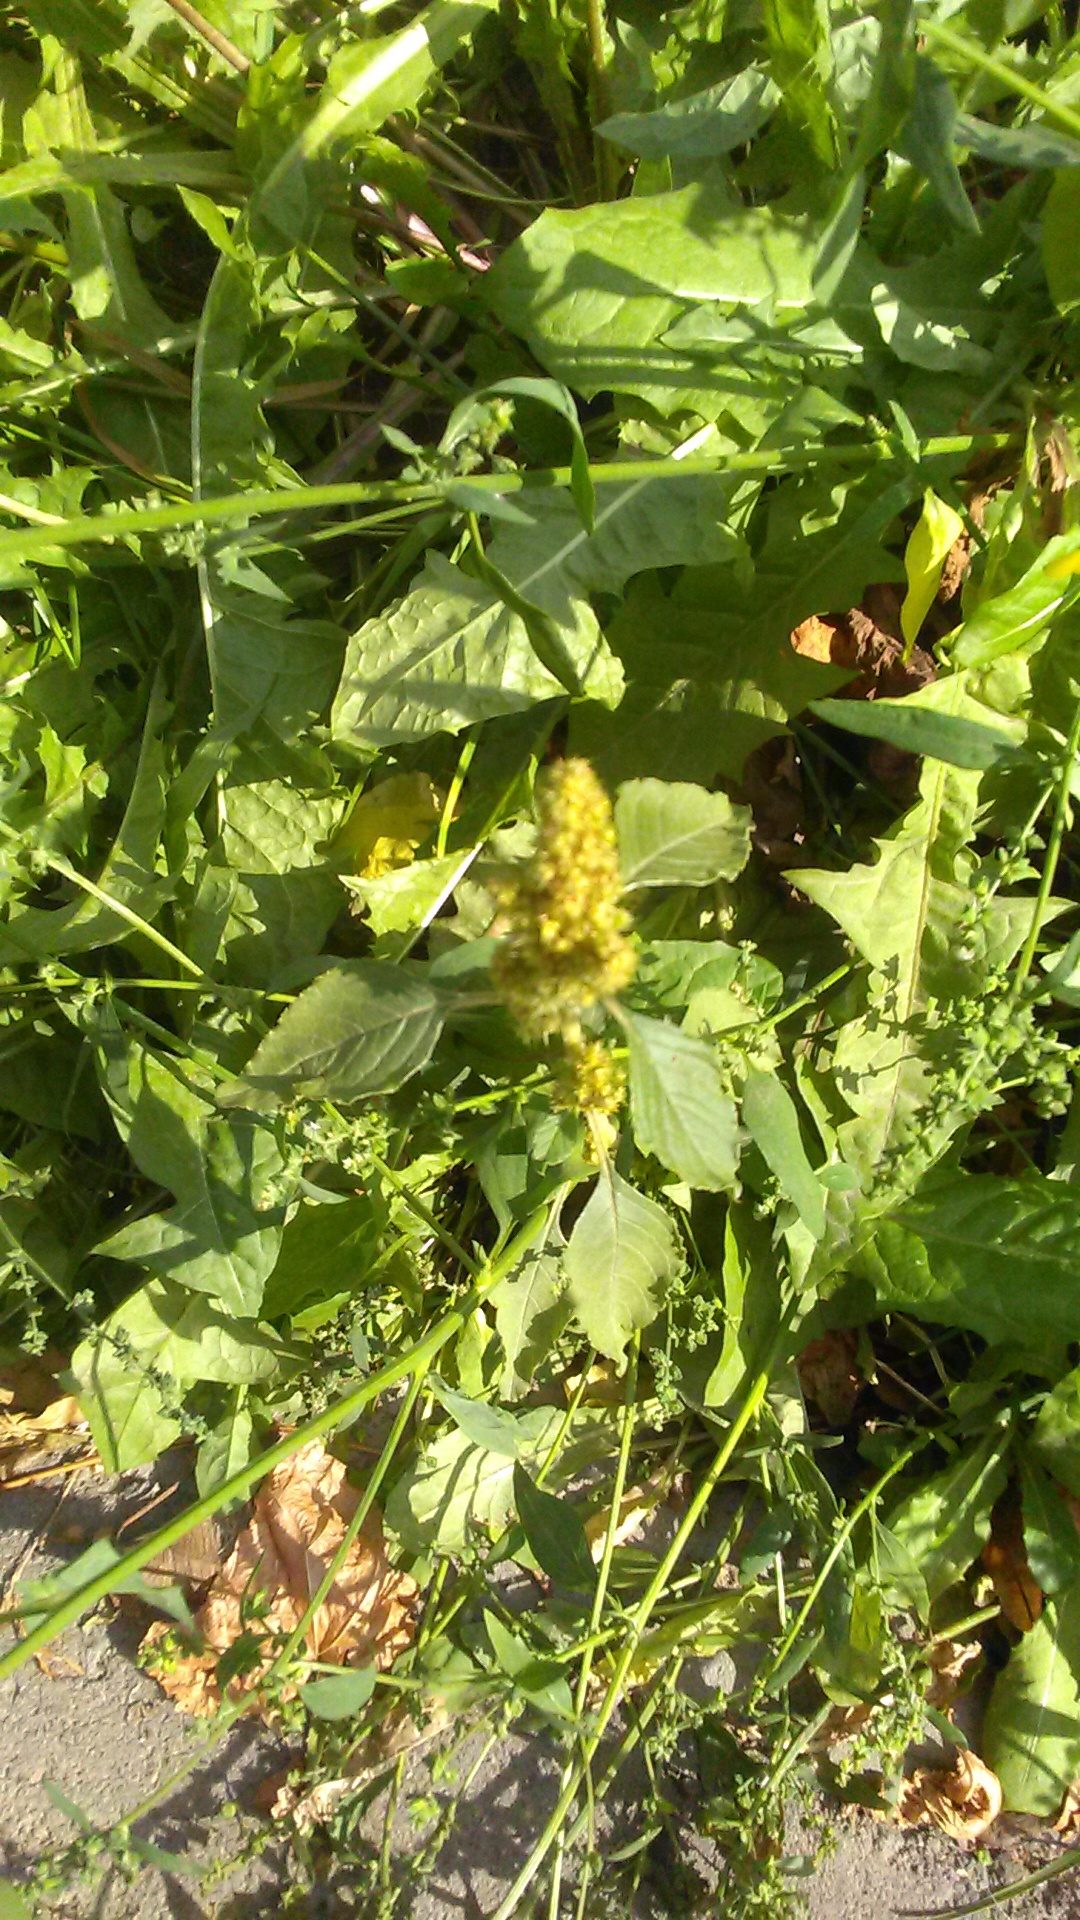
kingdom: Plantae
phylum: Tracheophyta
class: Magnoliopsida
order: Caryophyllales
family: Amaranthaceae
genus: Amaranthus
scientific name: Amaranthus retroflexus
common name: Redroot amaranth
